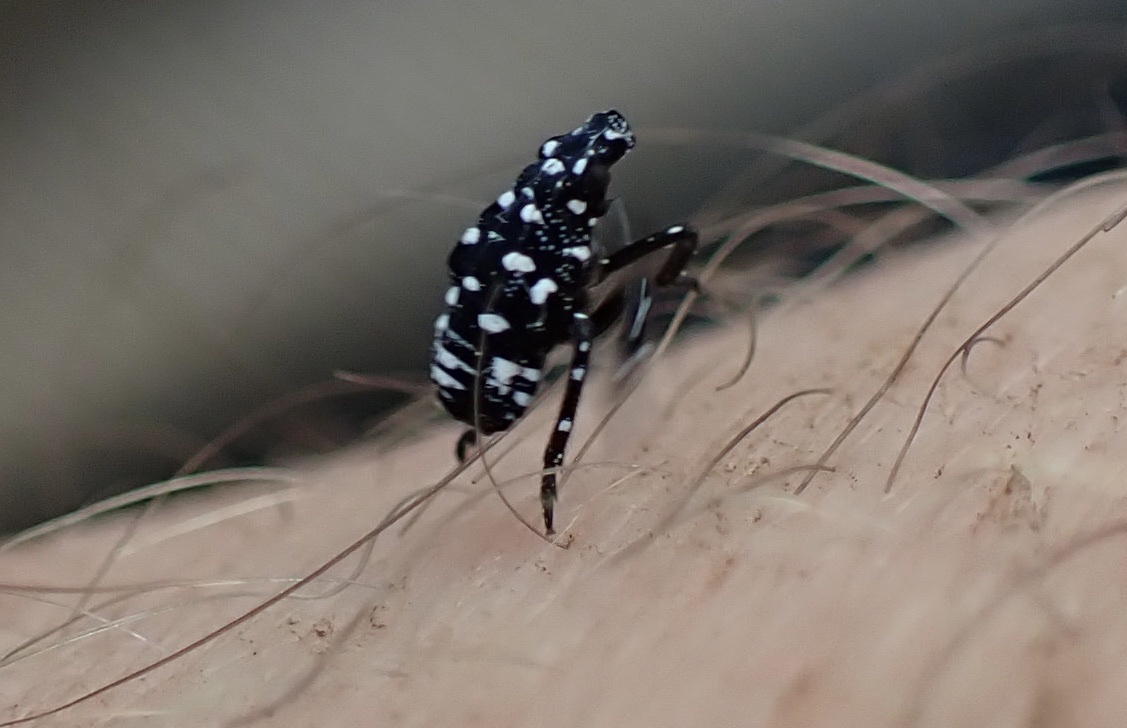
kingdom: Animalia
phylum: Arthropoda
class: Insecta
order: Hemiptera
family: Fulgoridae
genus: Lycorma
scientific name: Lycorma delicatula
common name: Spotted lanternfly
